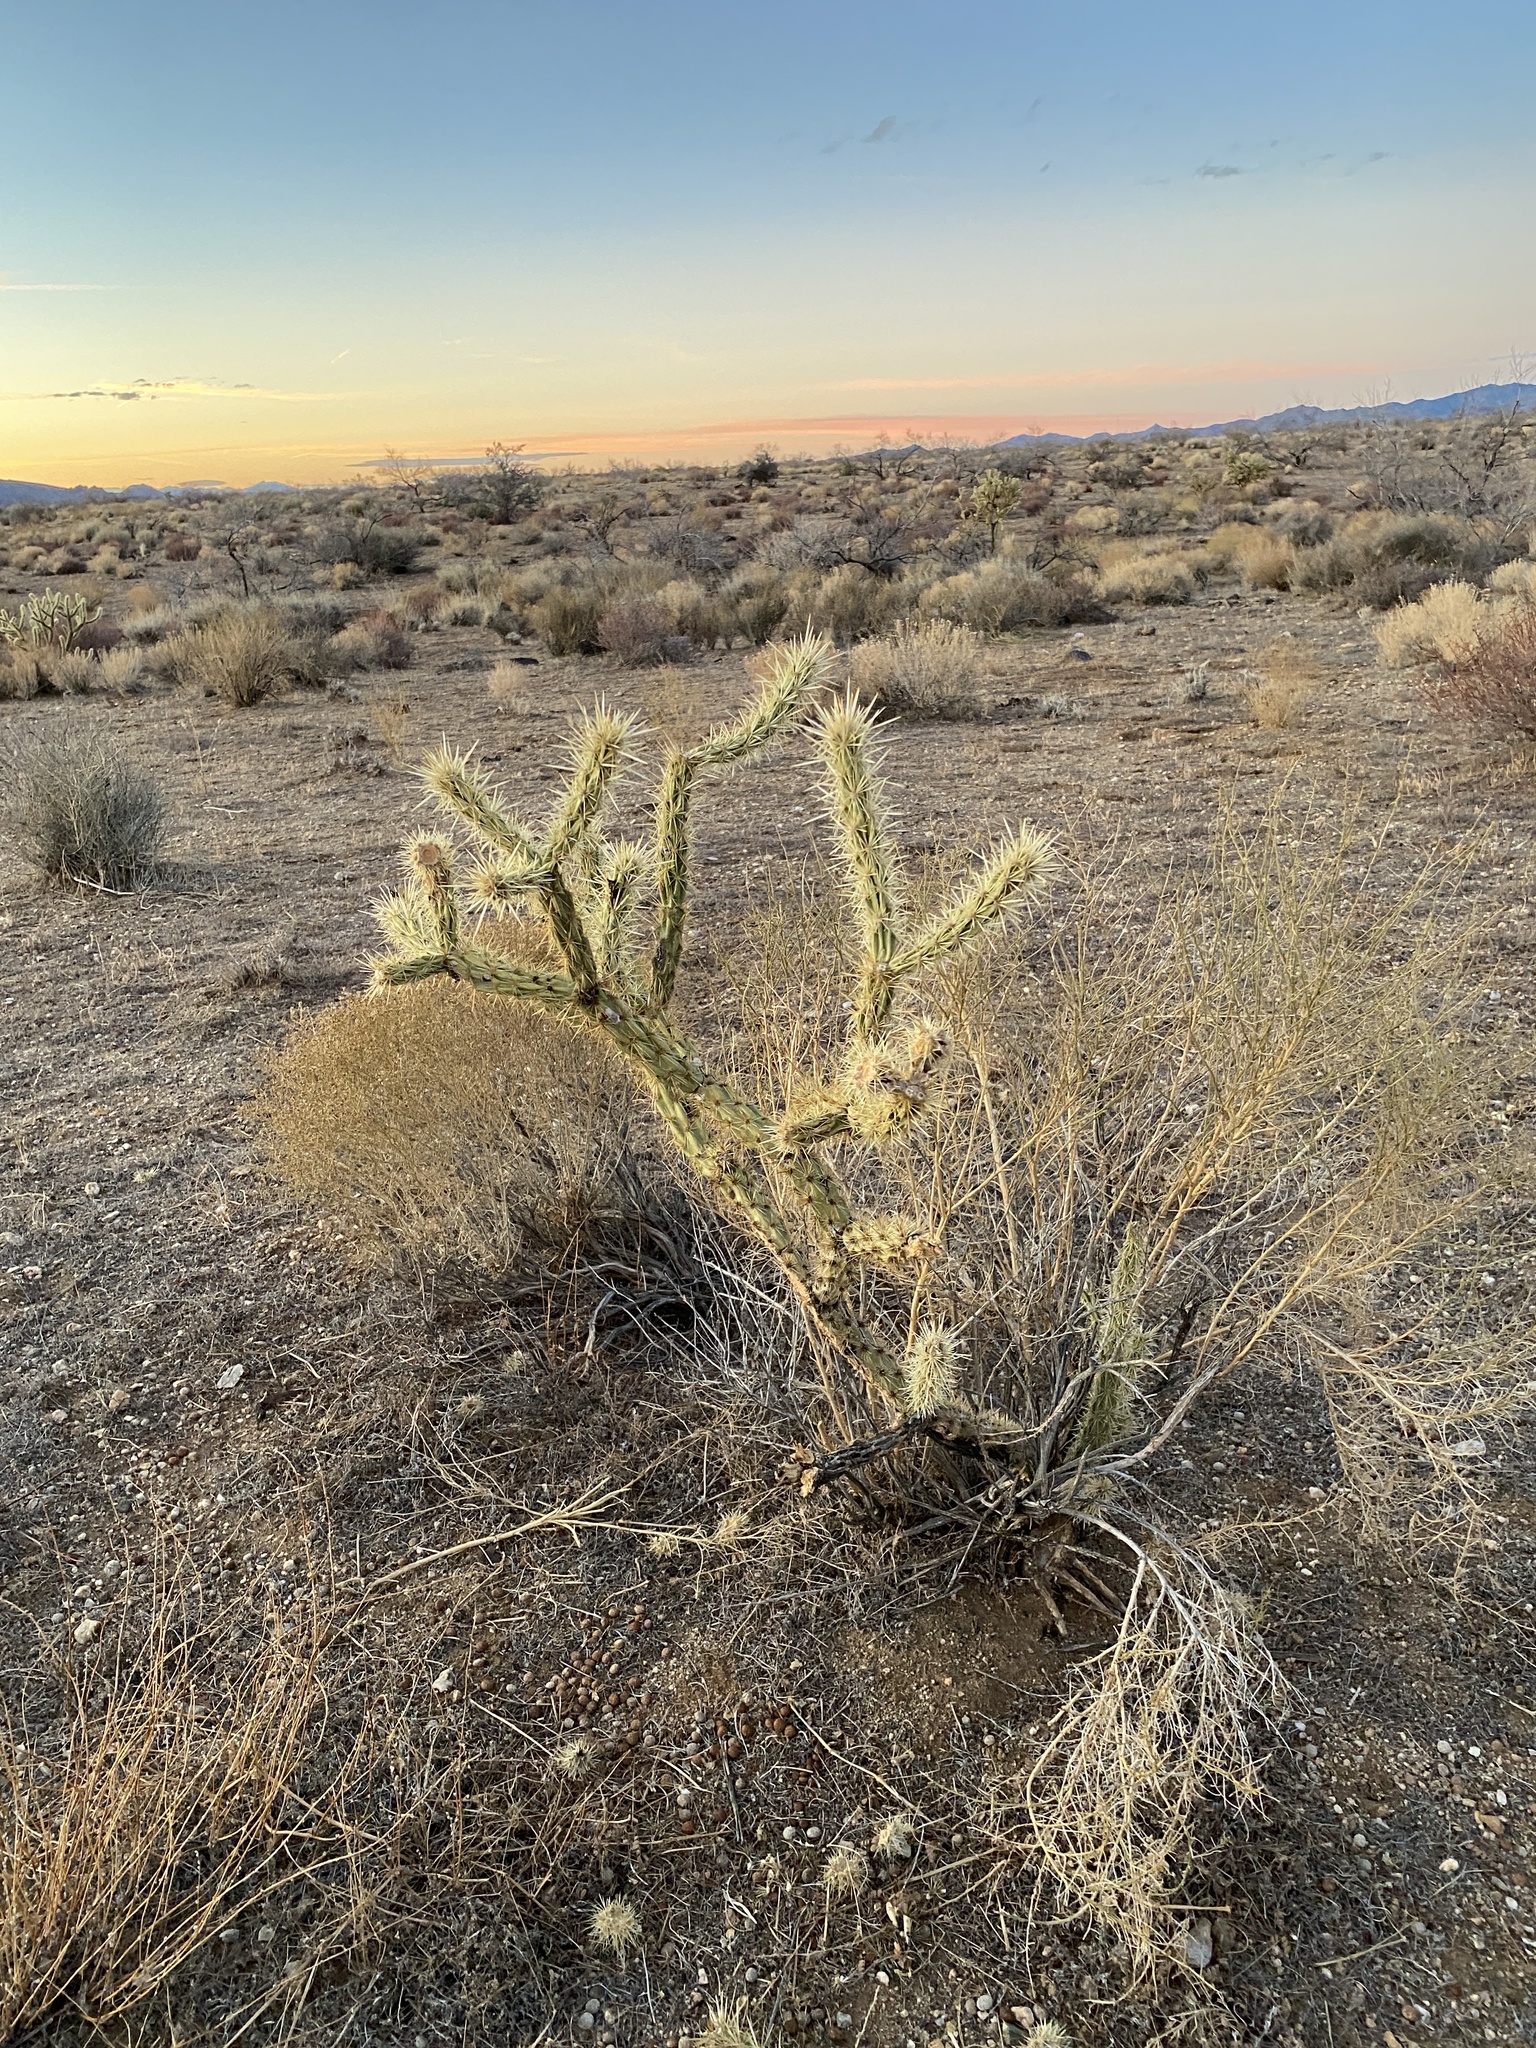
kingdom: Plantae
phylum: Tracheophyta
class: Magnoliopsida
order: Caryophyllales
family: Cactaceae
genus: Cylindropuntia
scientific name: Cylindropuntia acanthocarpa
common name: Buckhorn cholla
